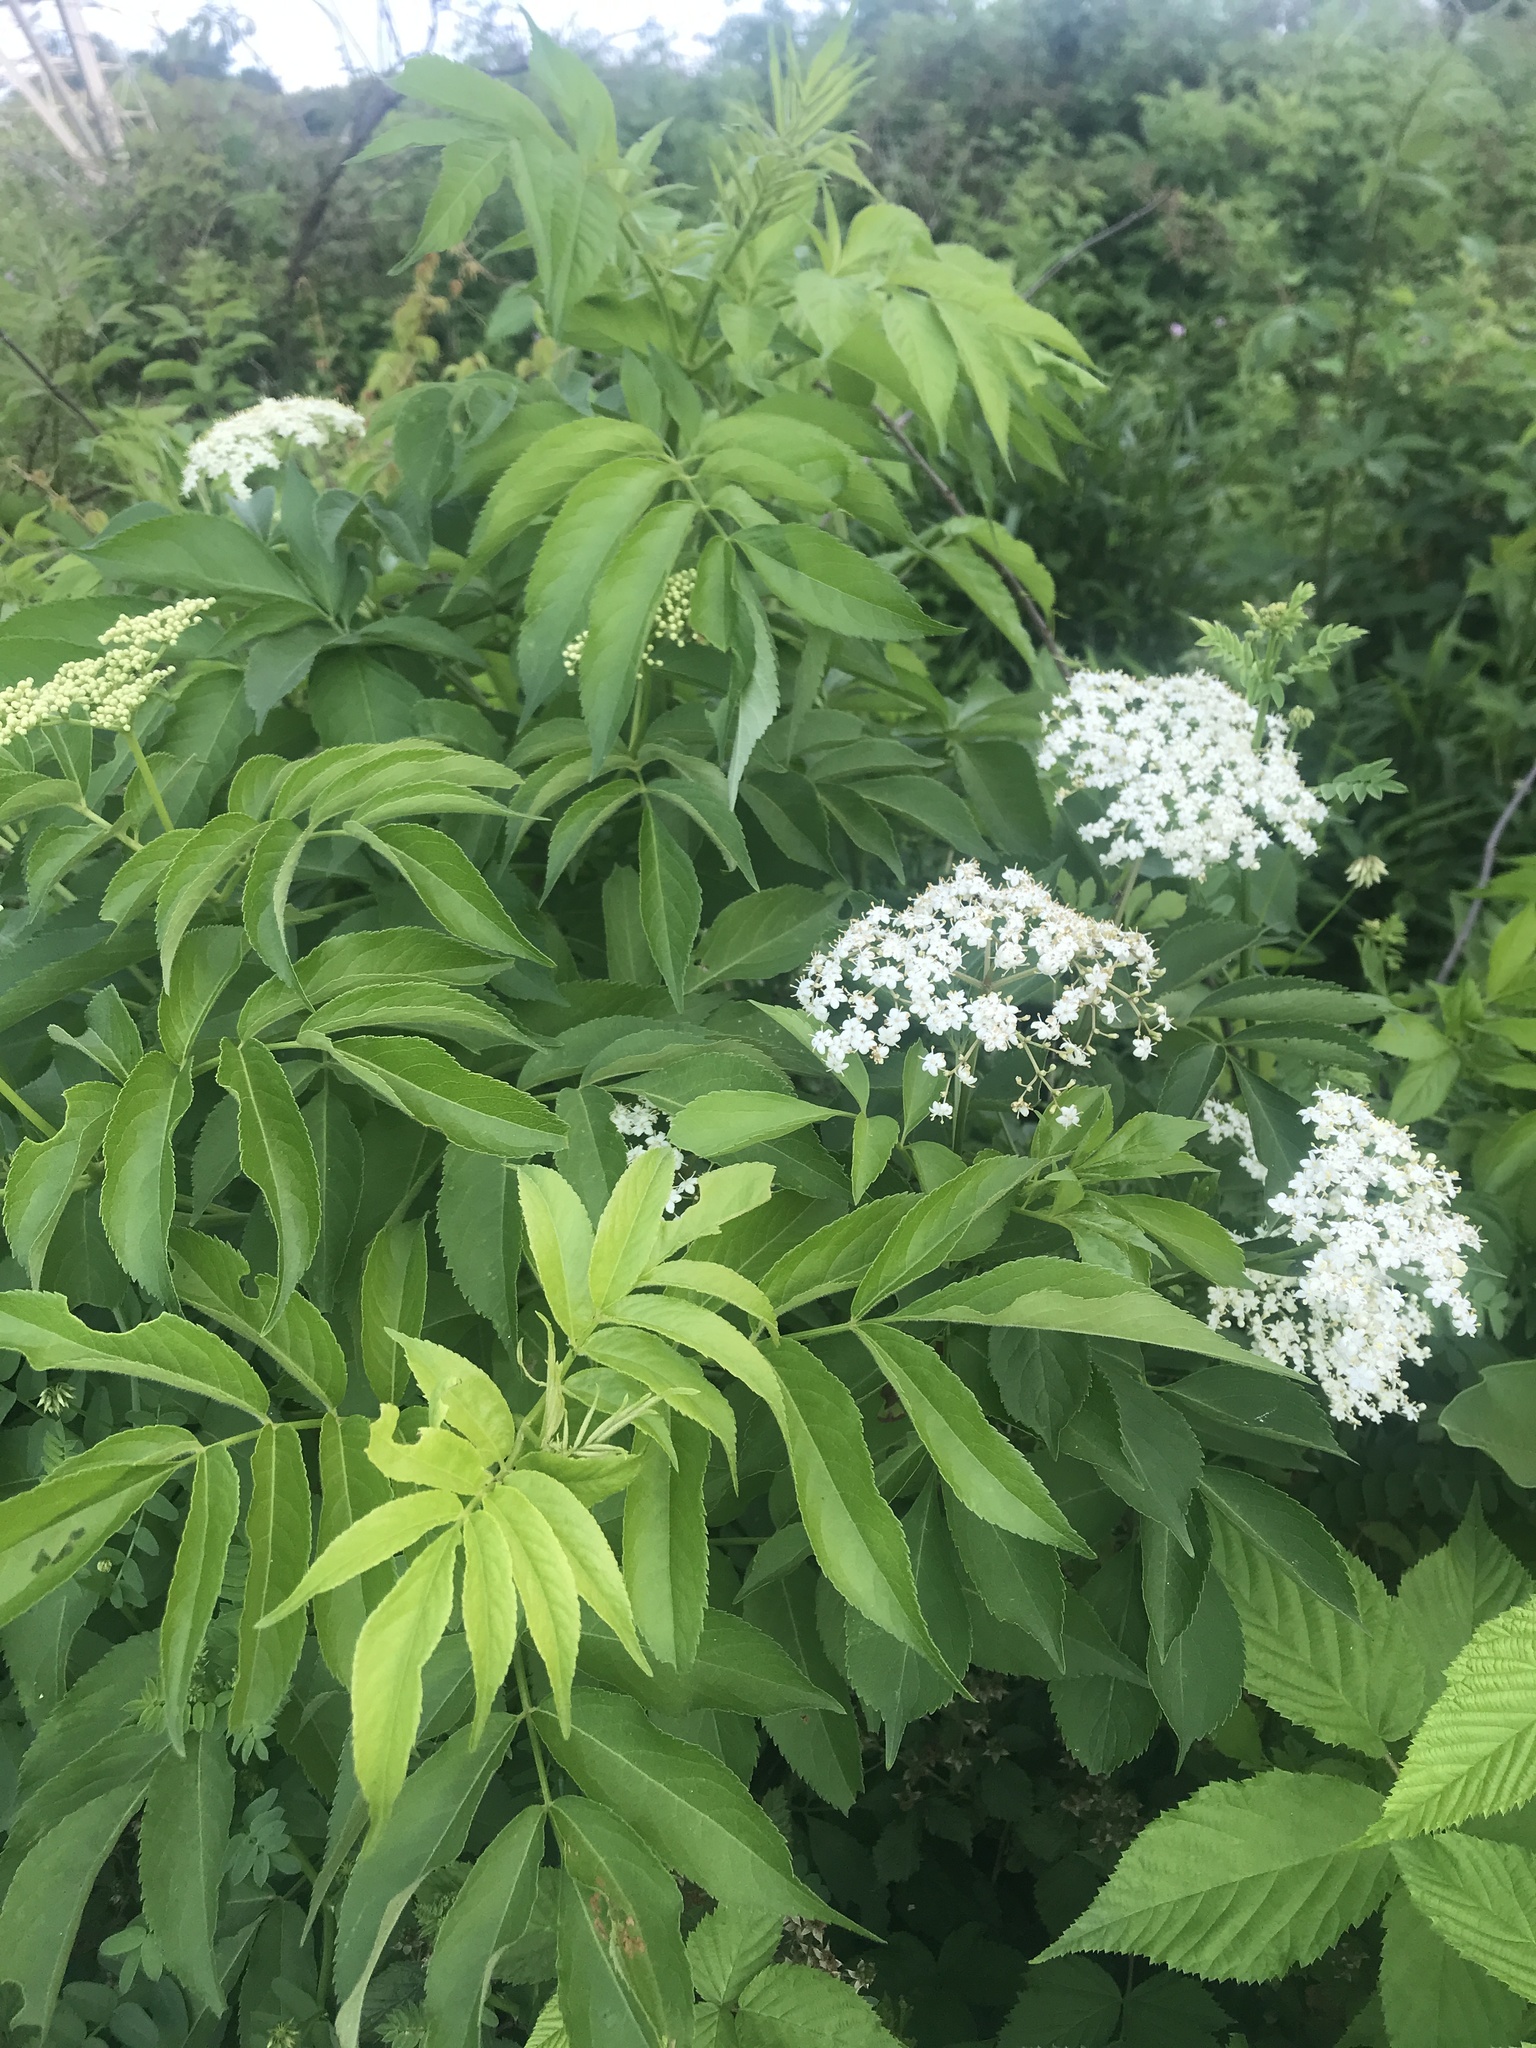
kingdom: Plantae
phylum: Tracheophyta
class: Magnoliopsida
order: Dipsacales
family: Viburnaceae
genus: Sambucus
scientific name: Sambucus canadensis
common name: American elder
